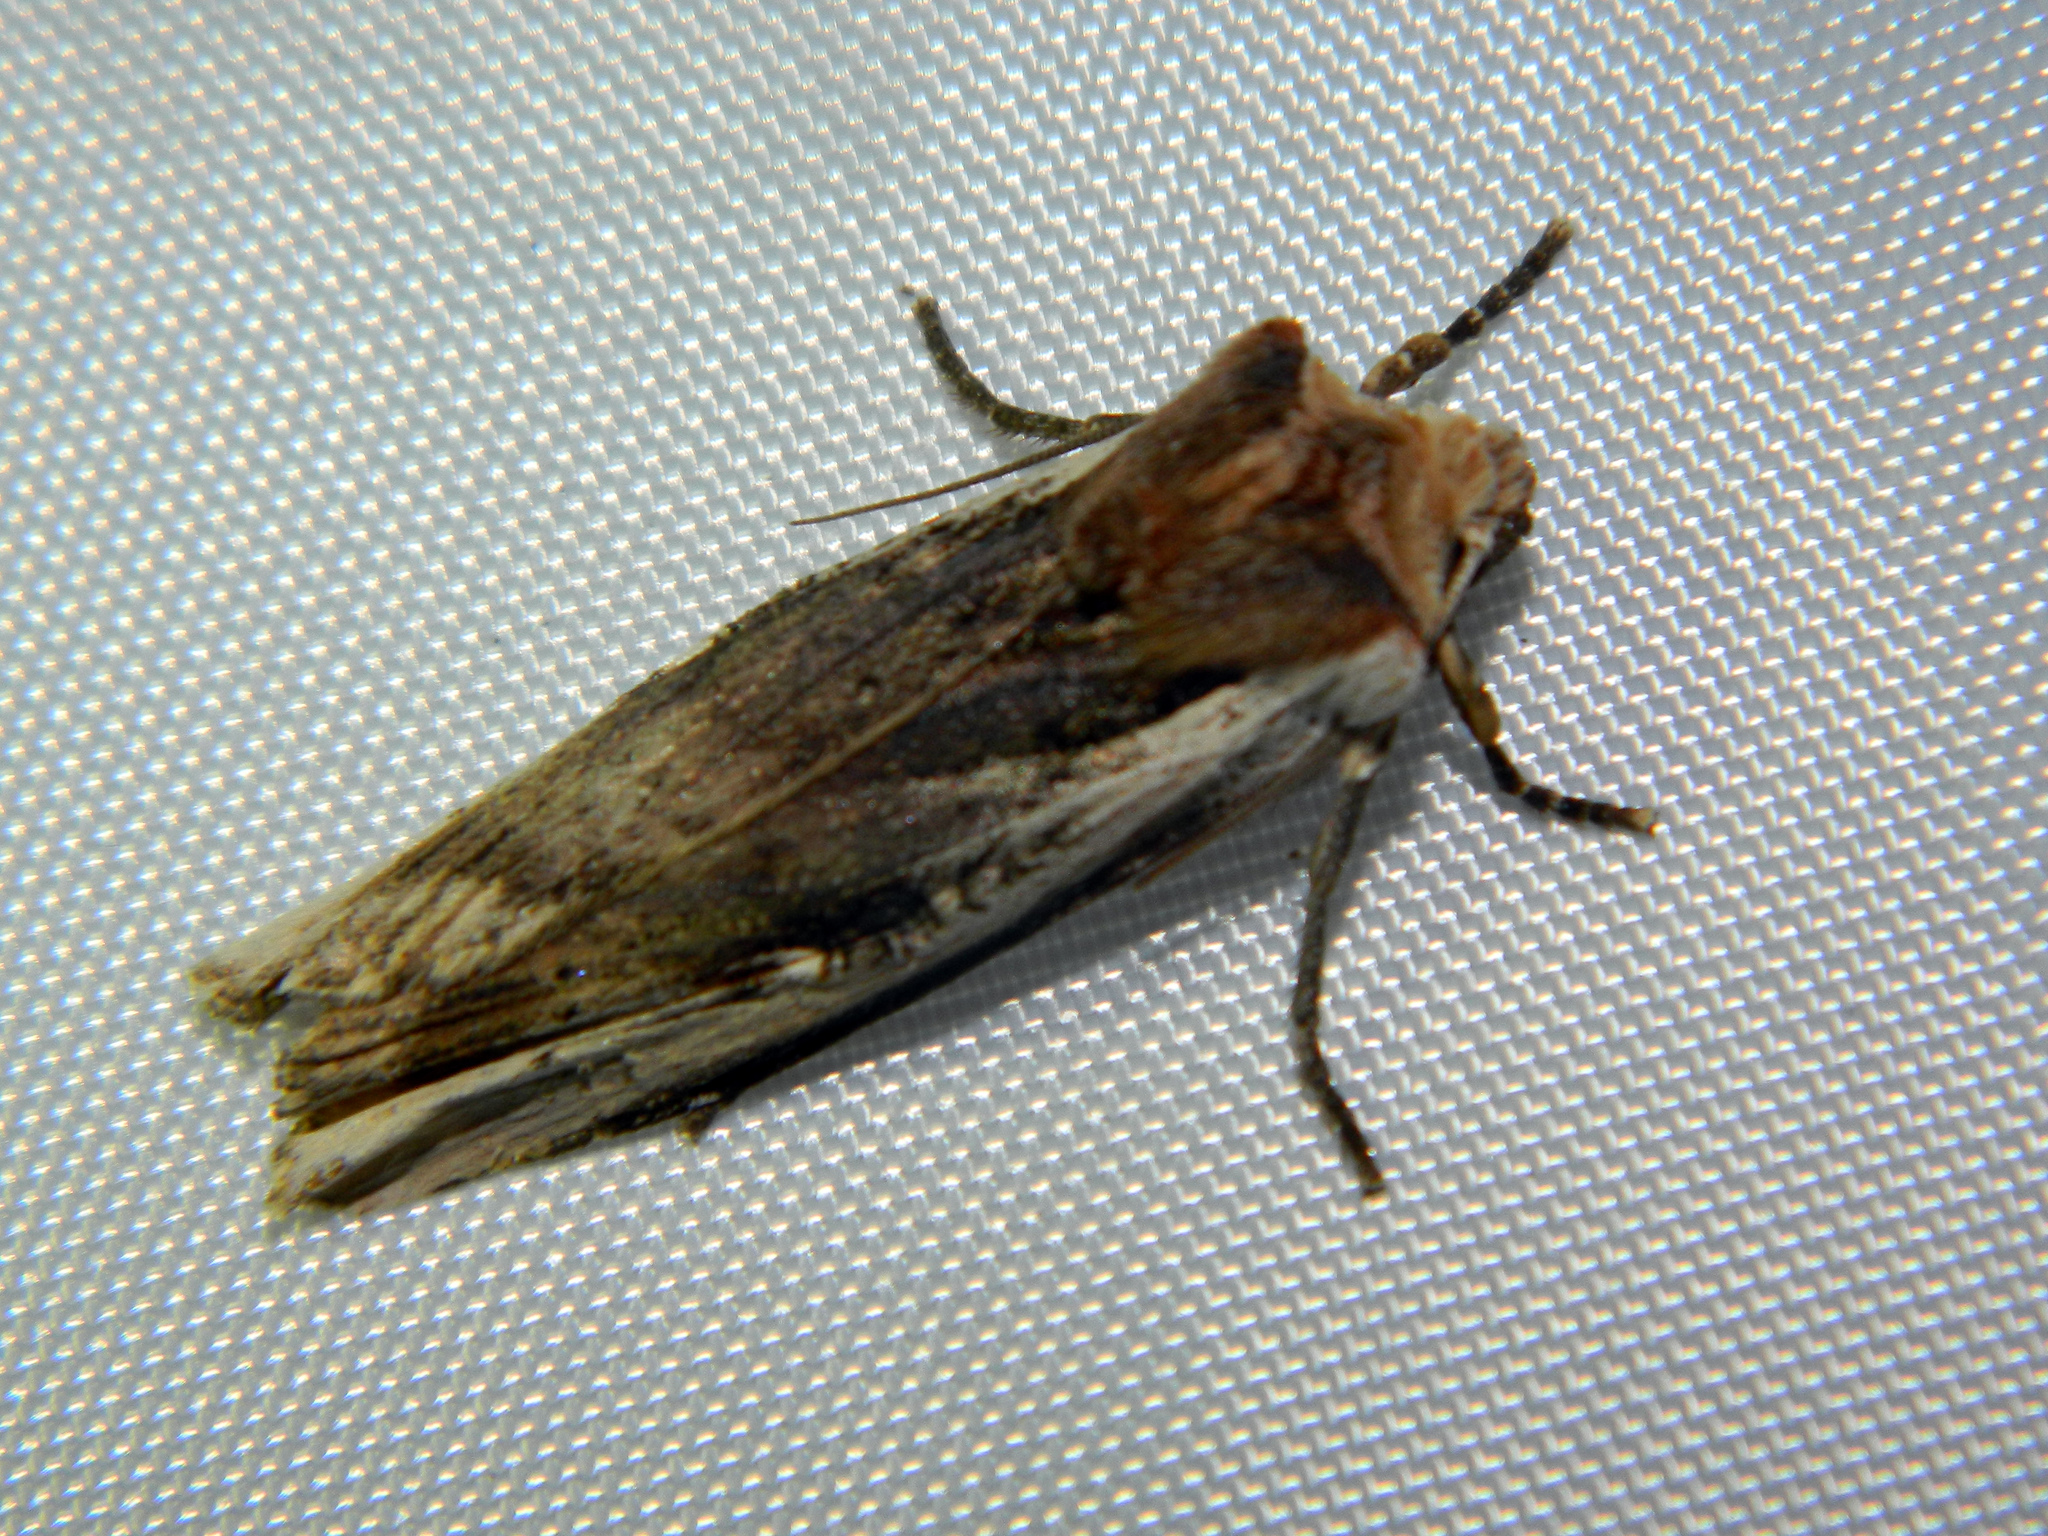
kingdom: Animalia
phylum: Arthropoda
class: Insecta
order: Lepidoptera
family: Noctuidae
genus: Xylena
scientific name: Xylena curvimacula
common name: Dot-and-dash swordgrass moth
